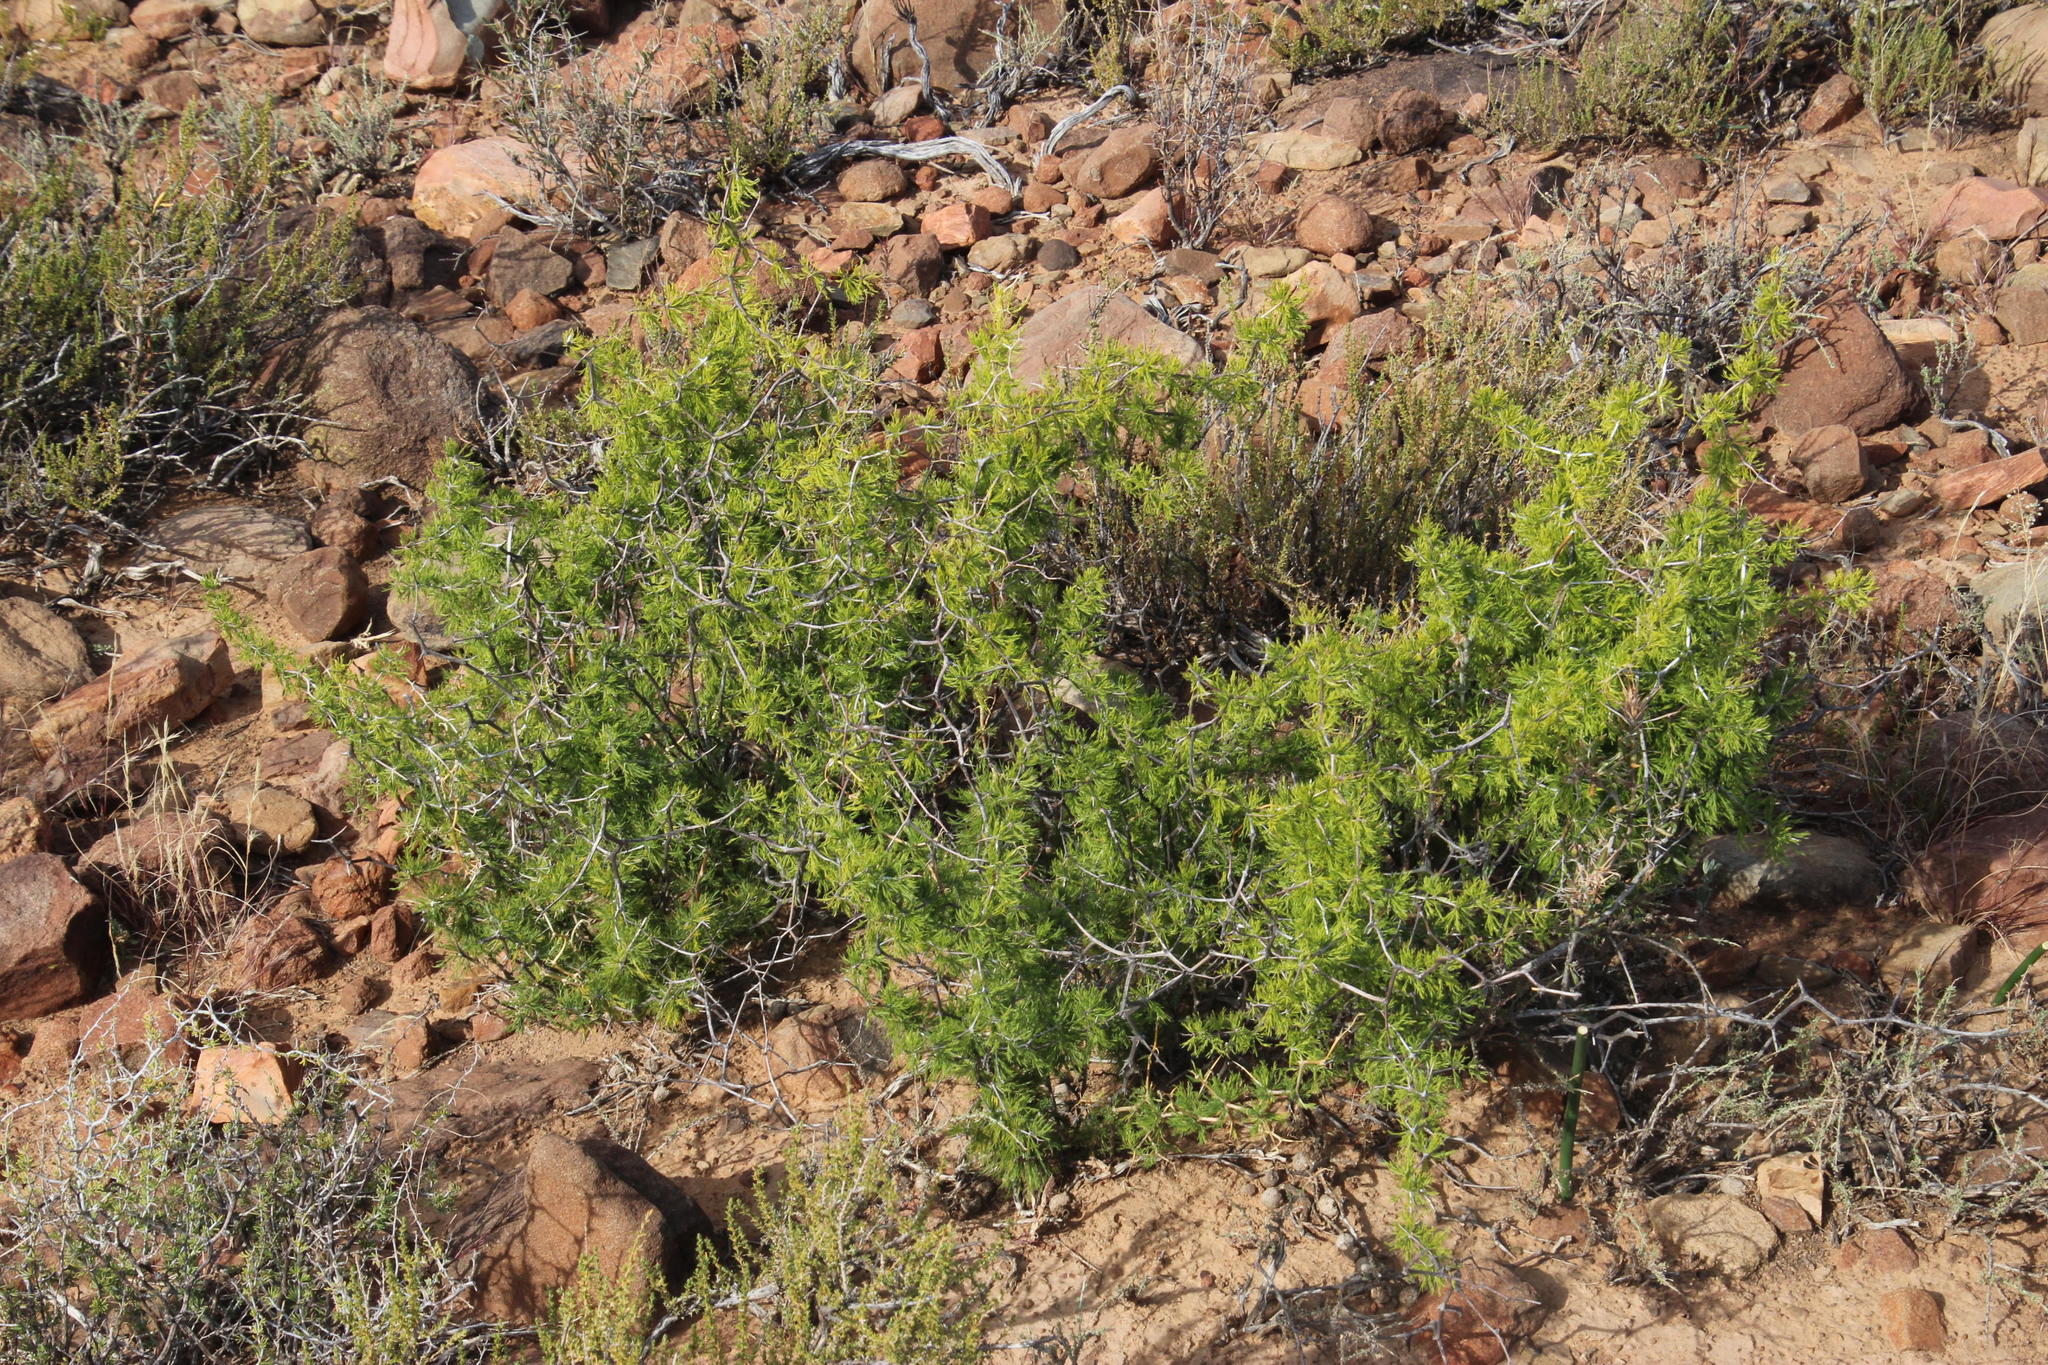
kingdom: Plantae
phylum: Tracheophyta
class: Liliopsida
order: Asparagales
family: Asparagaceae
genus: Asparagus
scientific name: Asparagus burchellii
